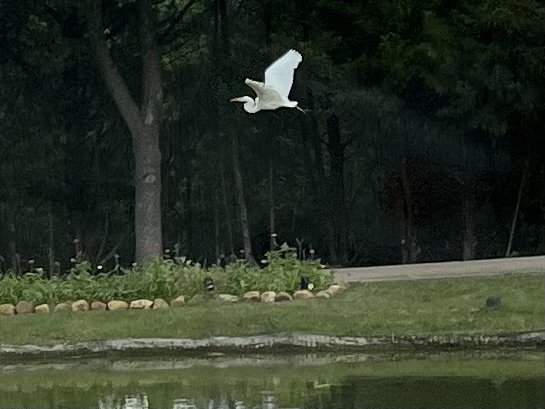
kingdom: Animalia
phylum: Chordata
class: Aves
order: Pelecaniformes
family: Ardeidae
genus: Ardea
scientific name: Ardea alba
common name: Great egret
